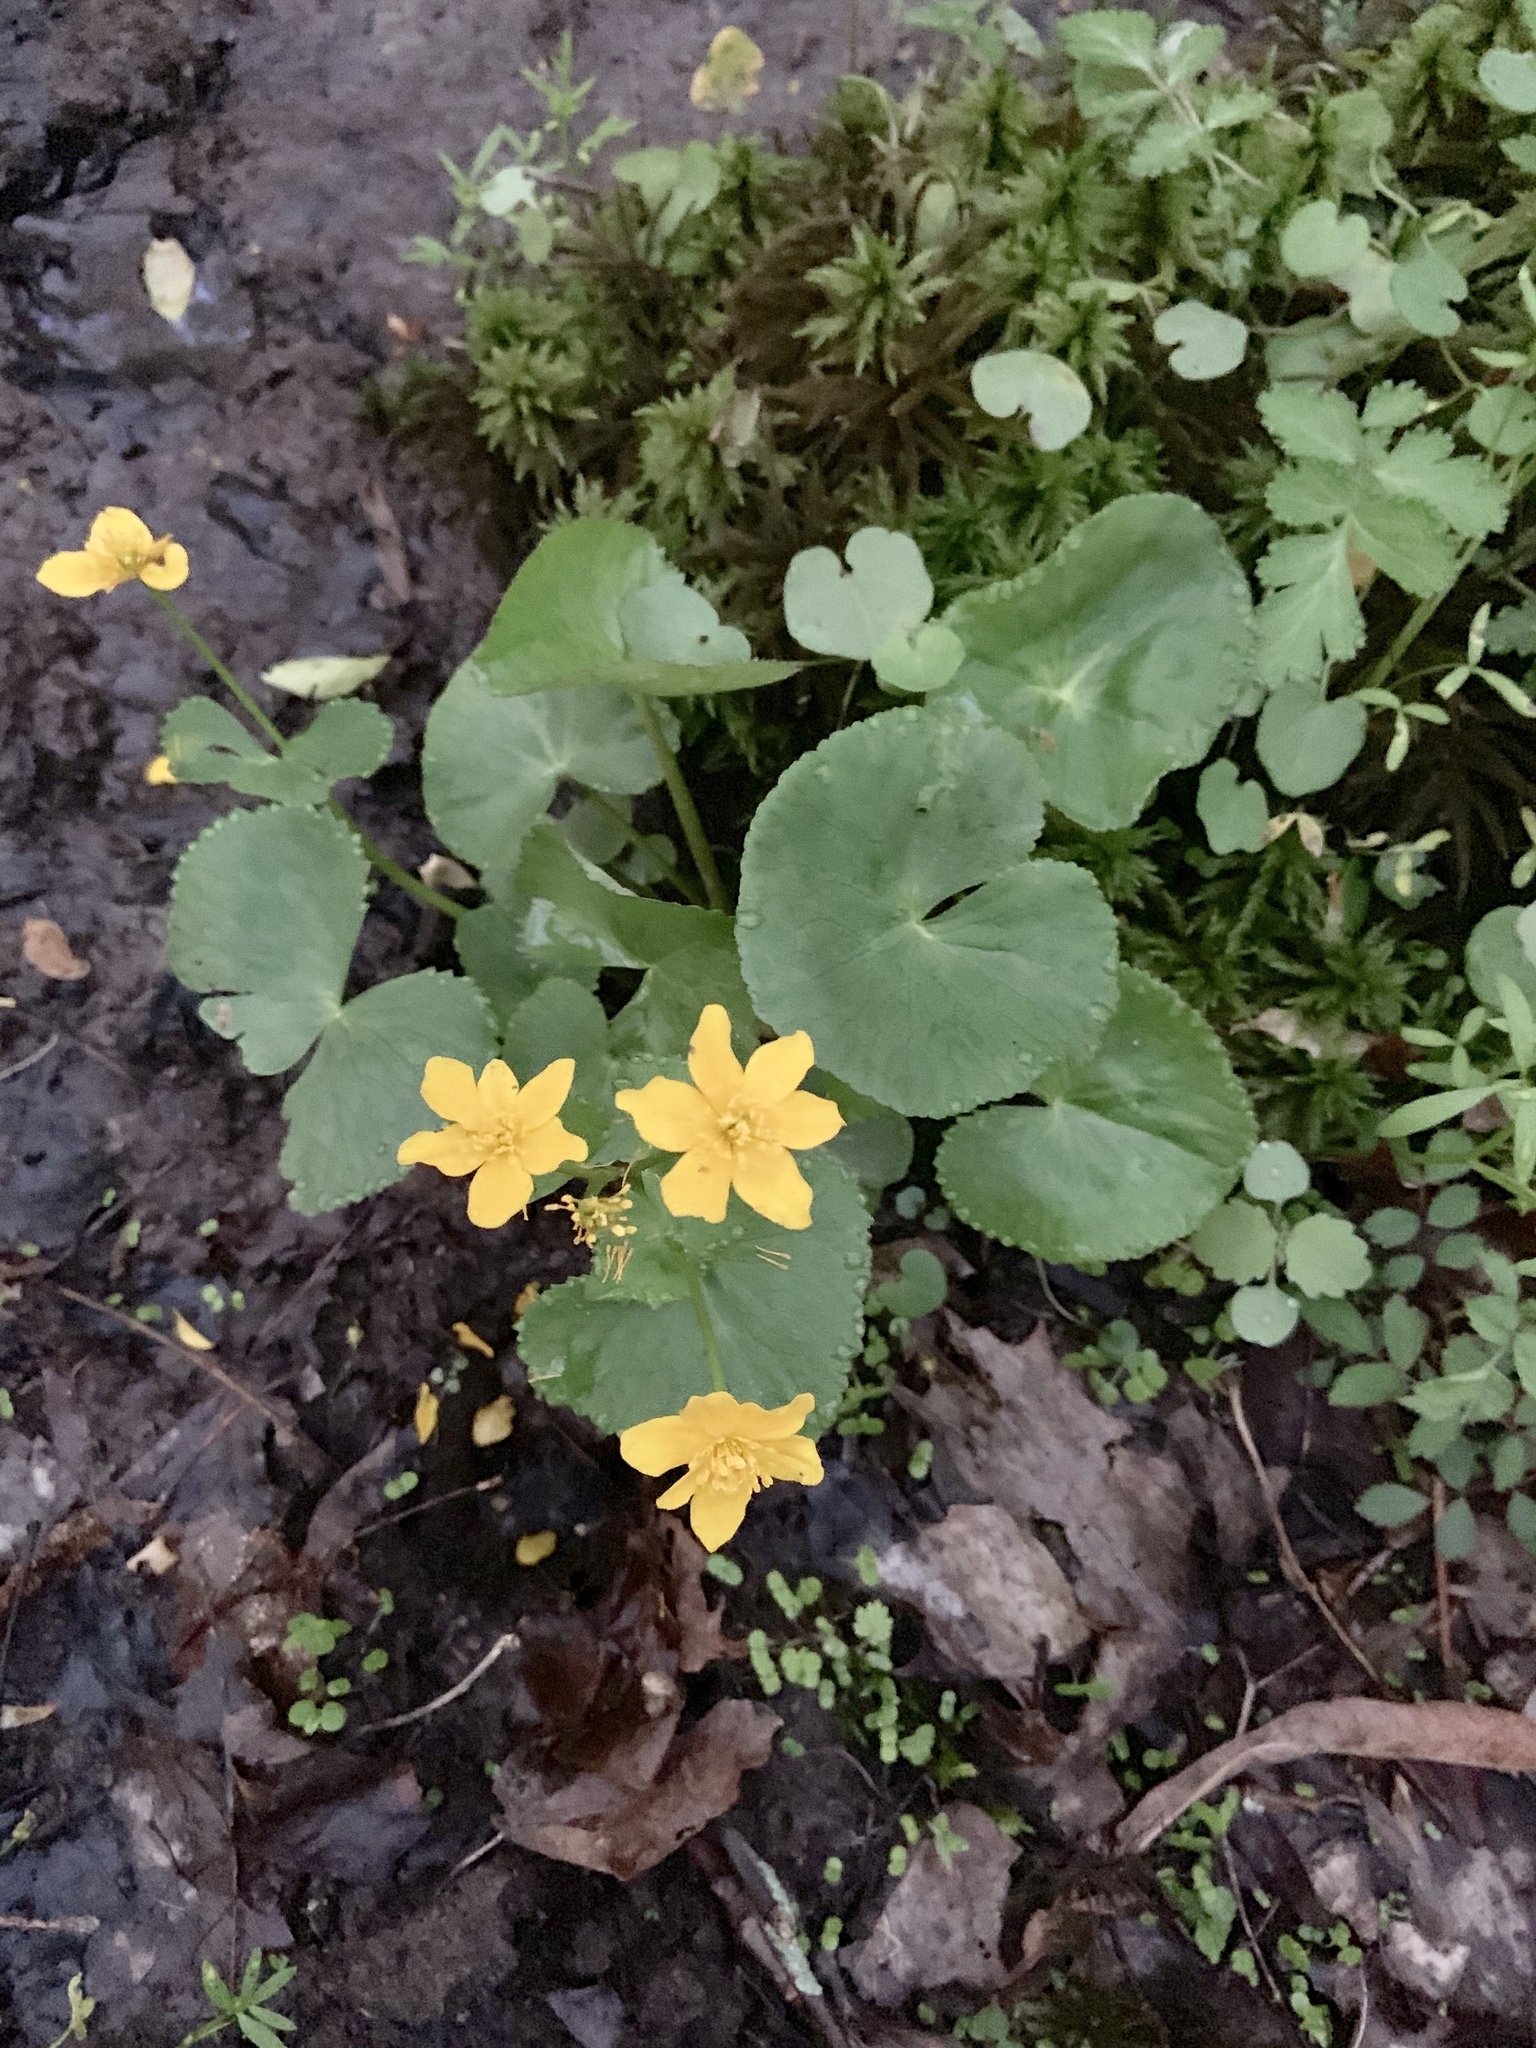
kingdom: Plantae
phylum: Tracheophyta
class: Magnoliopsida
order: Ranunculales
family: Ranunculaceae
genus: Caltha
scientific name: Caltha palustris
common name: Marsh marigold
